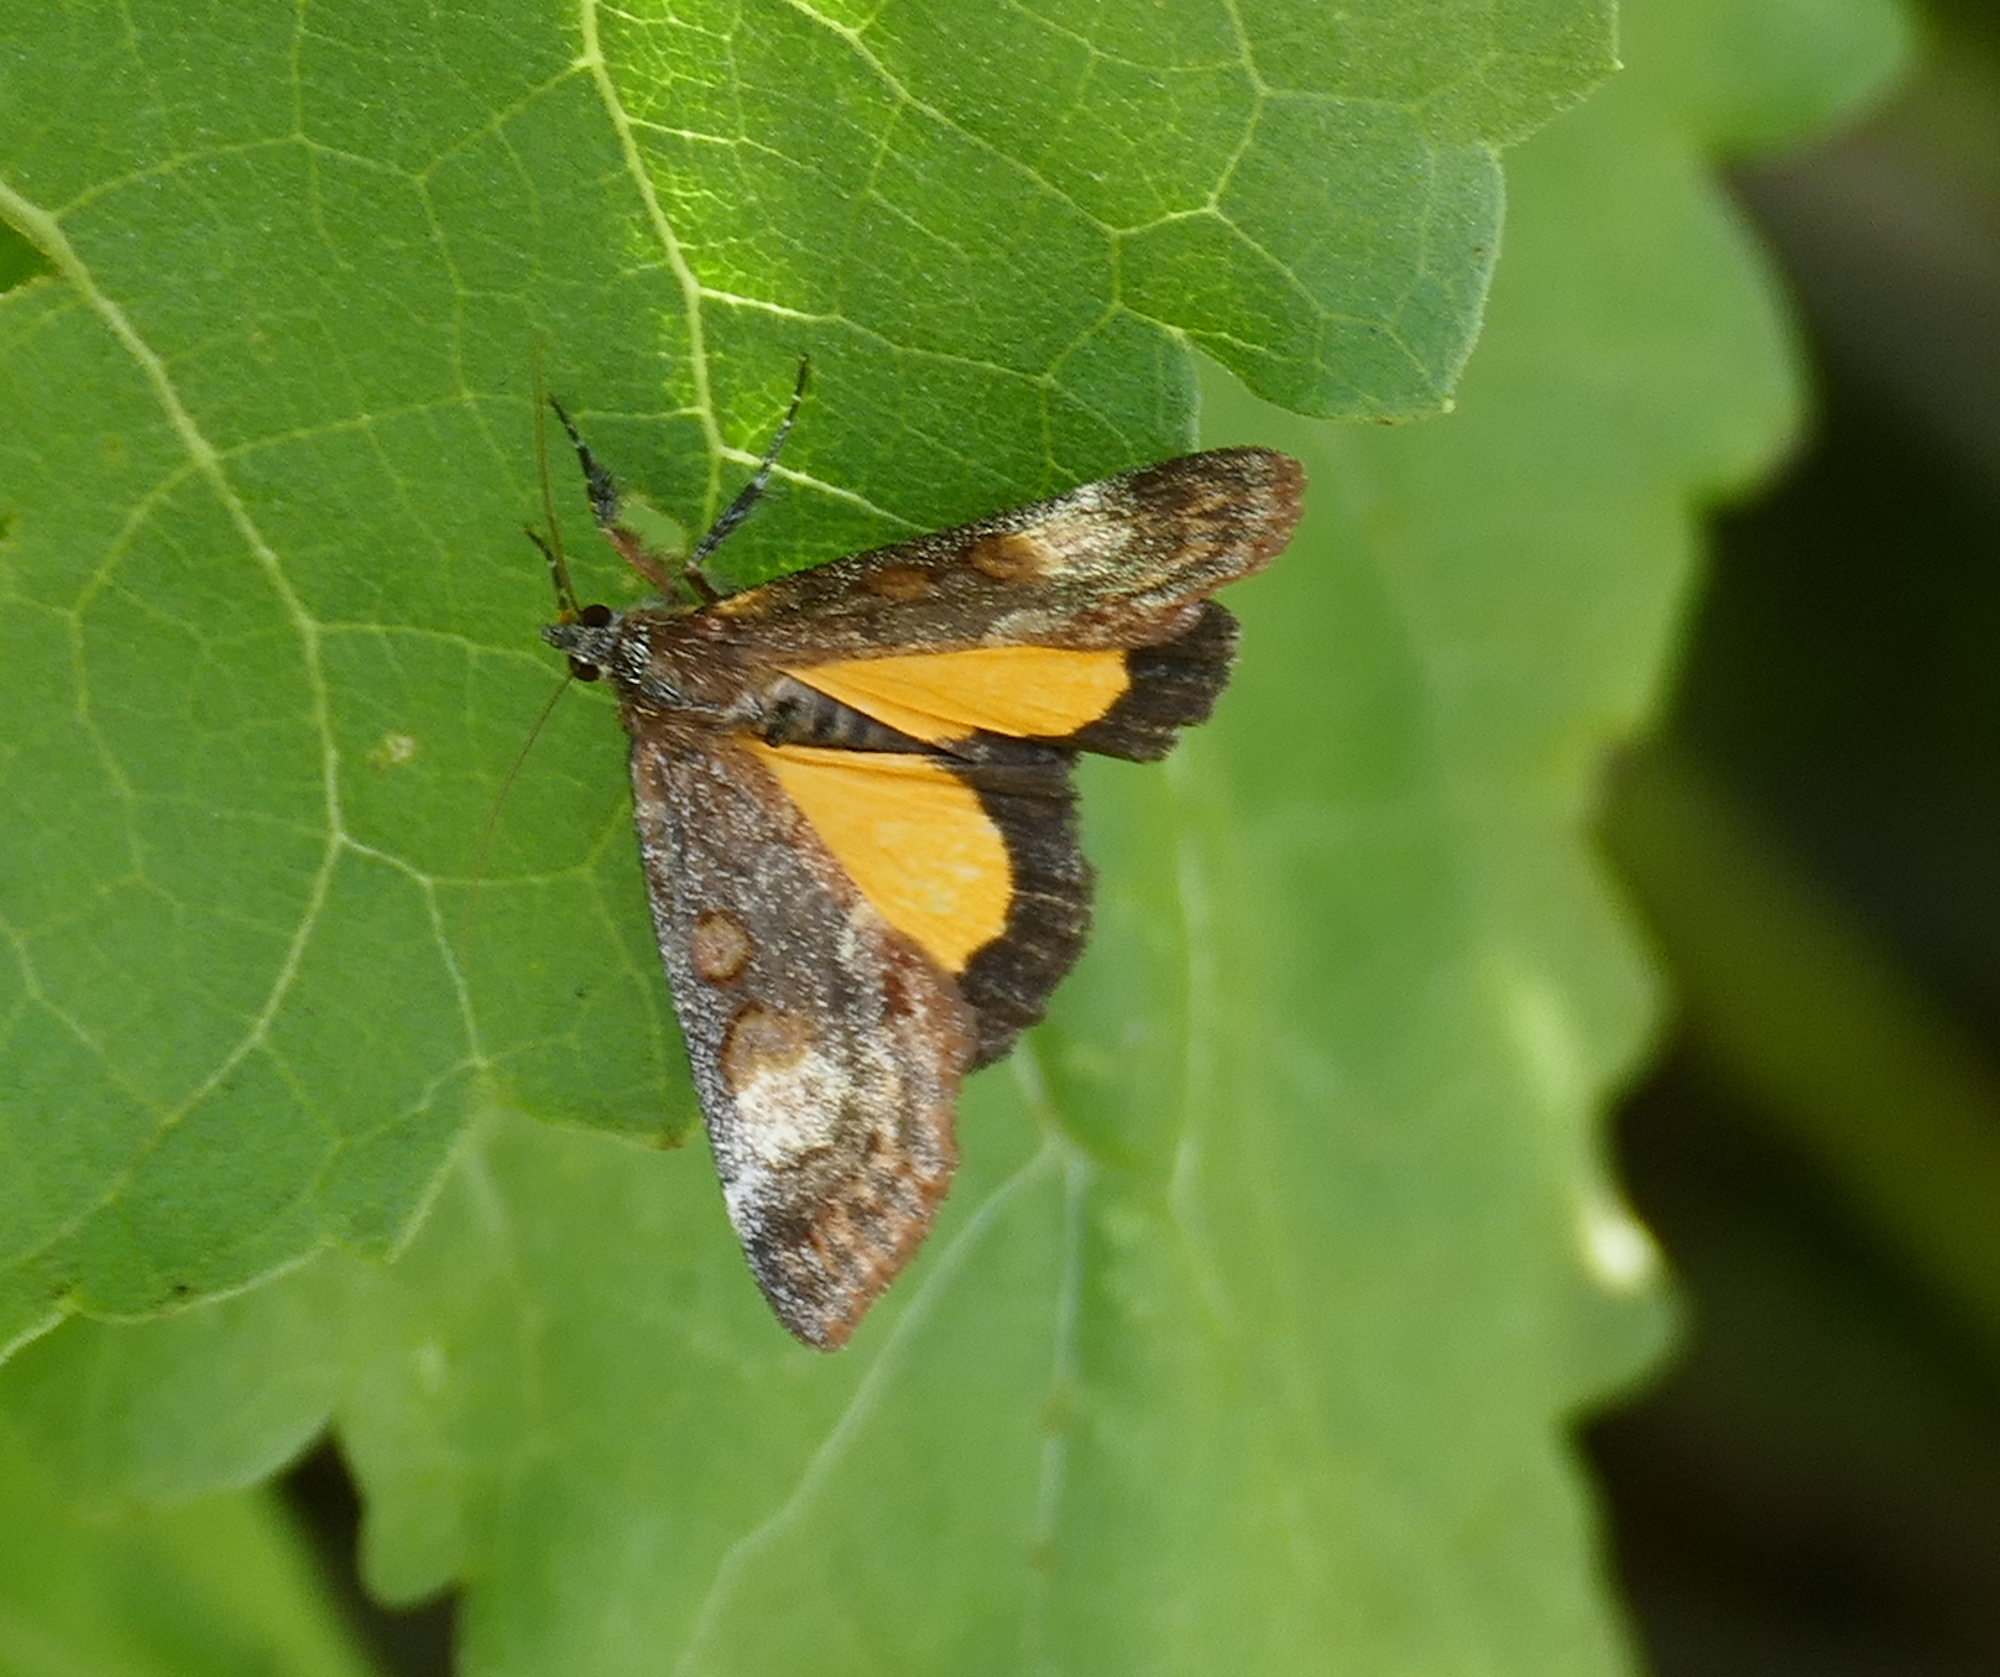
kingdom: Animalia
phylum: Arthropoda
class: Insecta
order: Lepidoptera
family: Noctuidae
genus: Gerra
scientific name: Gerra sevorsa
